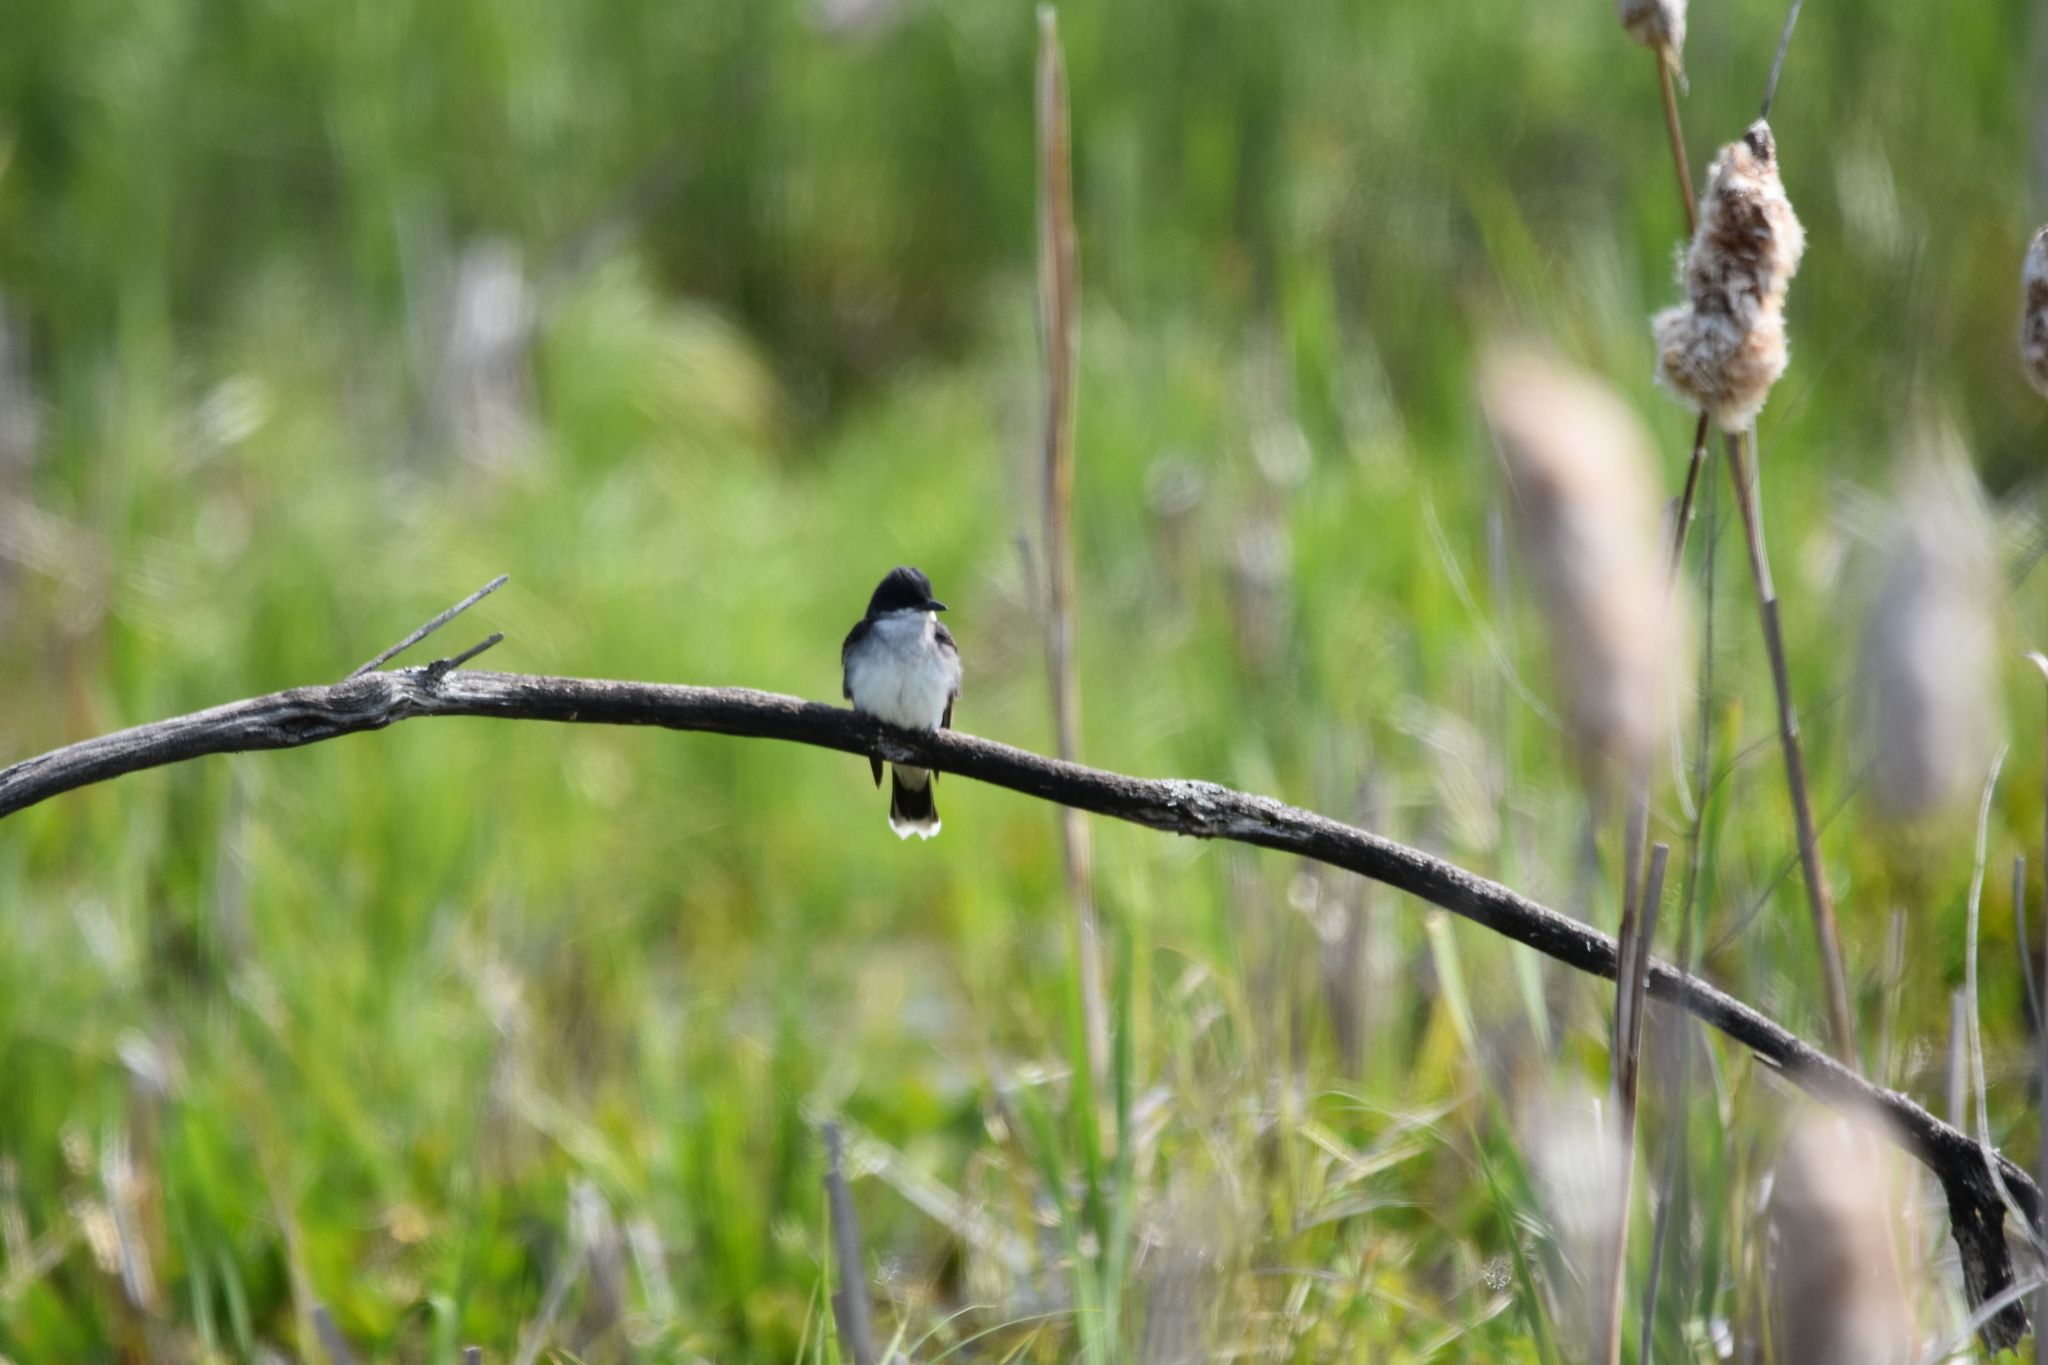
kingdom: Animalia
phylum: Chordata
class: Aves
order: Passeriformes
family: Tyrannidae
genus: Tyrannus
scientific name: Tyrannus tyrannus
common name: Eastern kingbird
